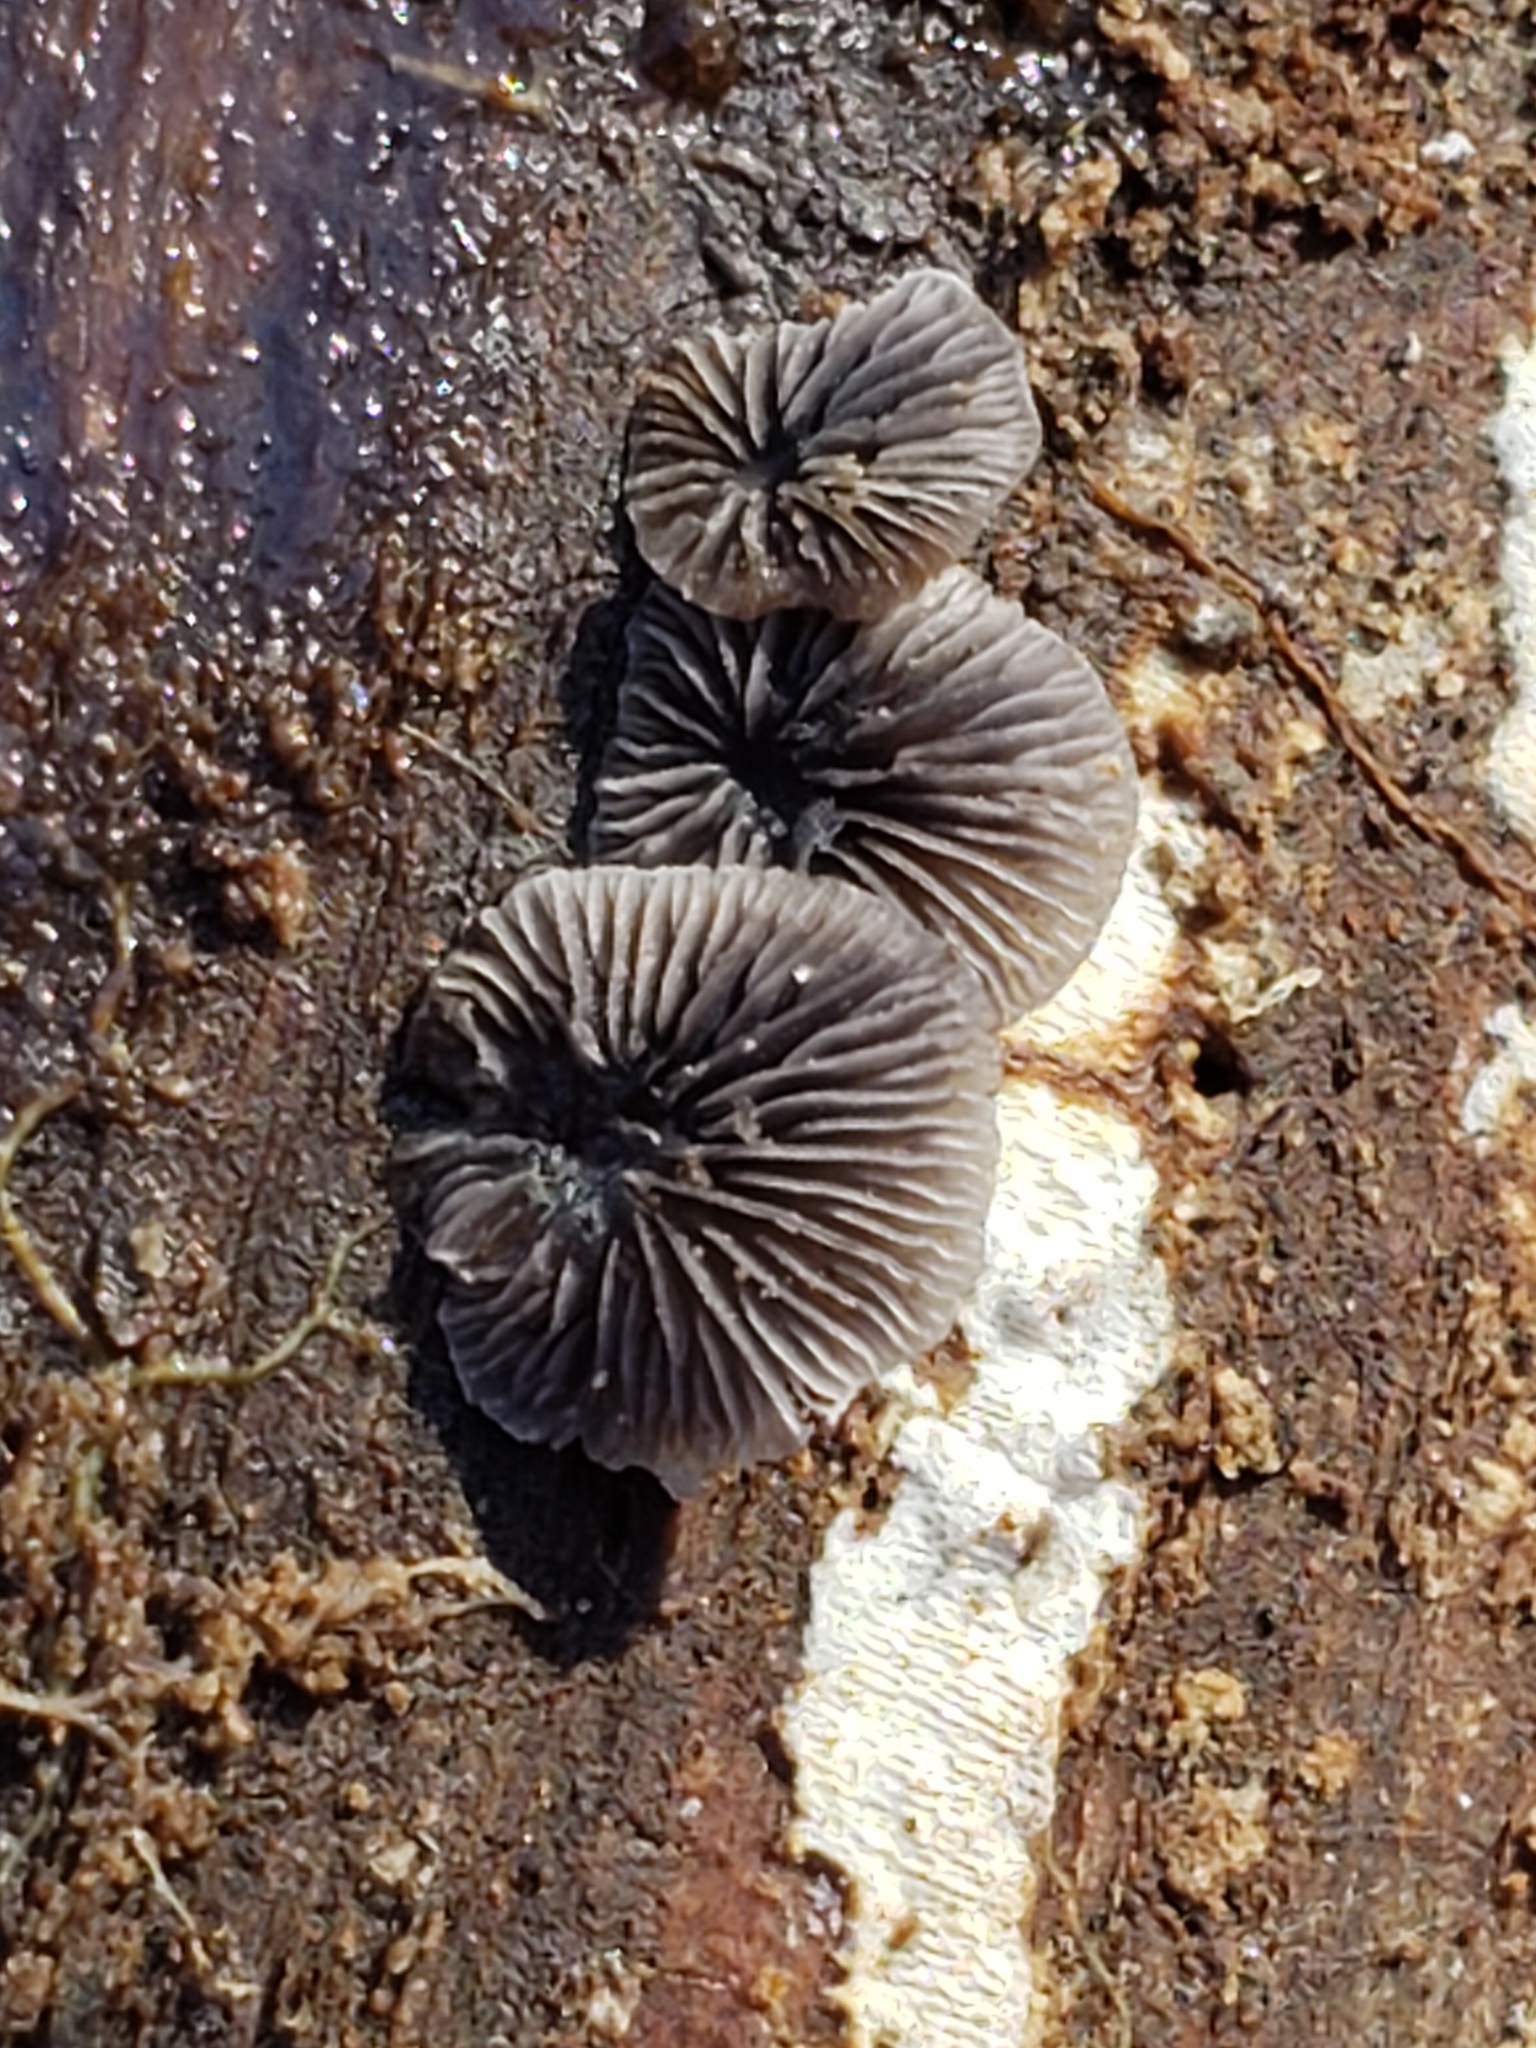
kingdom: Fungi
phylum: Basidiomycota
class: Agaricomycetes
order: Agaricales
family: Pleurotaceae
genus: Resupinatus
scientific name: Resupinatus applicatus
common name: Smoked oysterling
